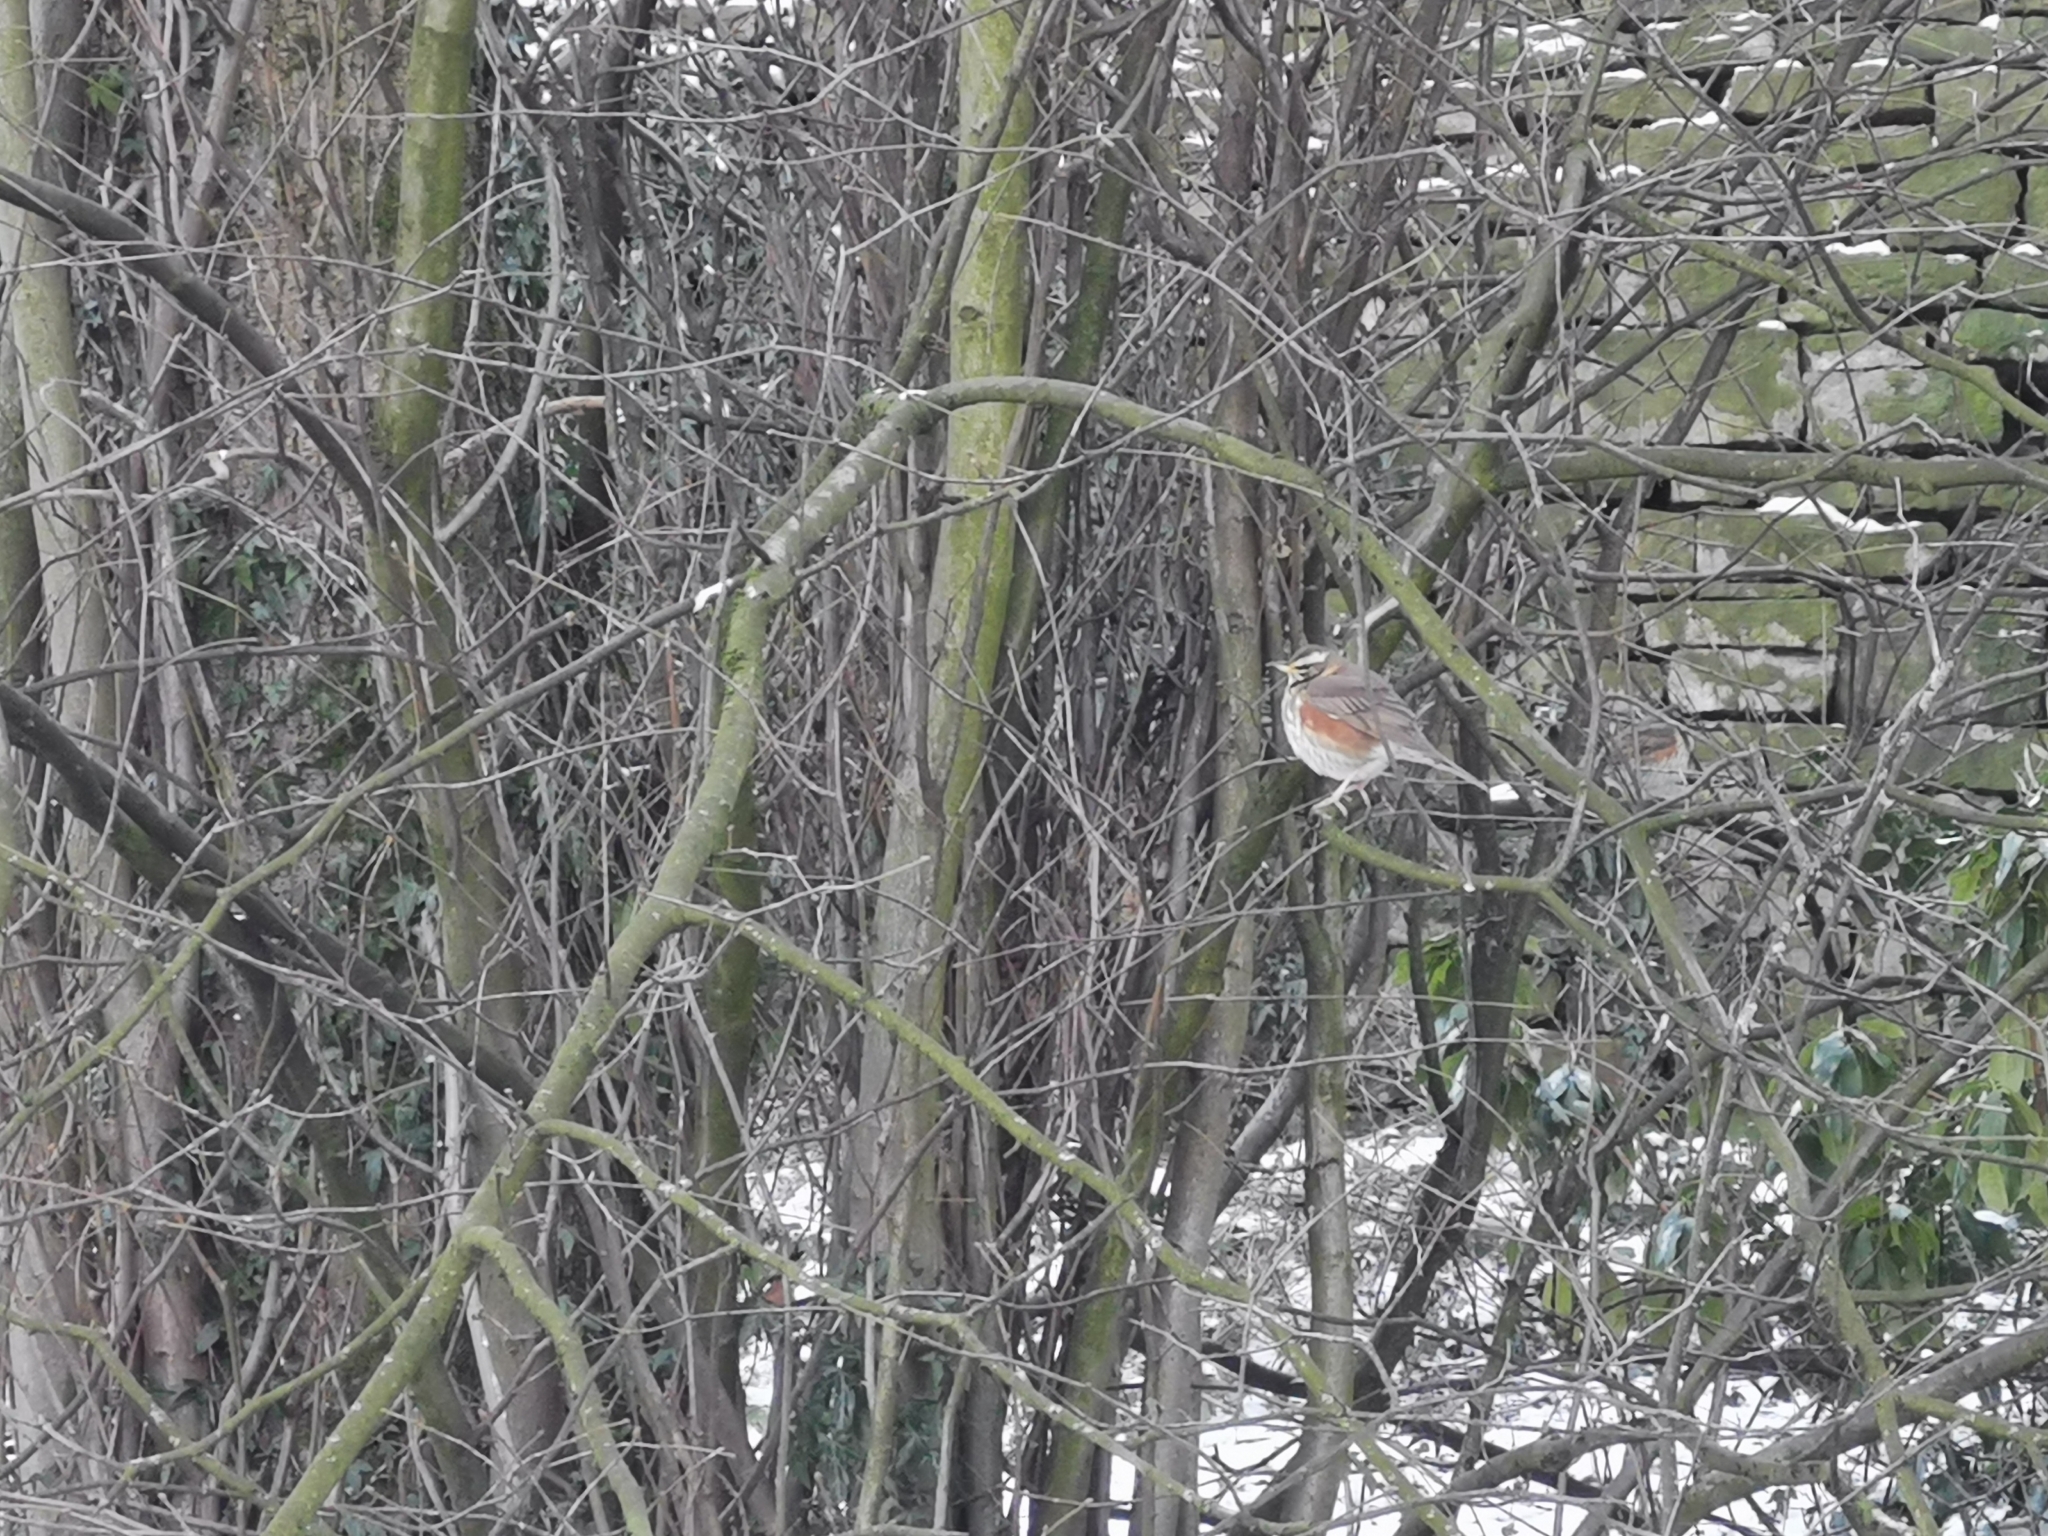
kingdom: Animalia
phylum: Chordata
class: Aves
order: Passeriformes
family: Turdidae
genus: Turdus
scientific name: Turdus iliacus
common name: Redwing
